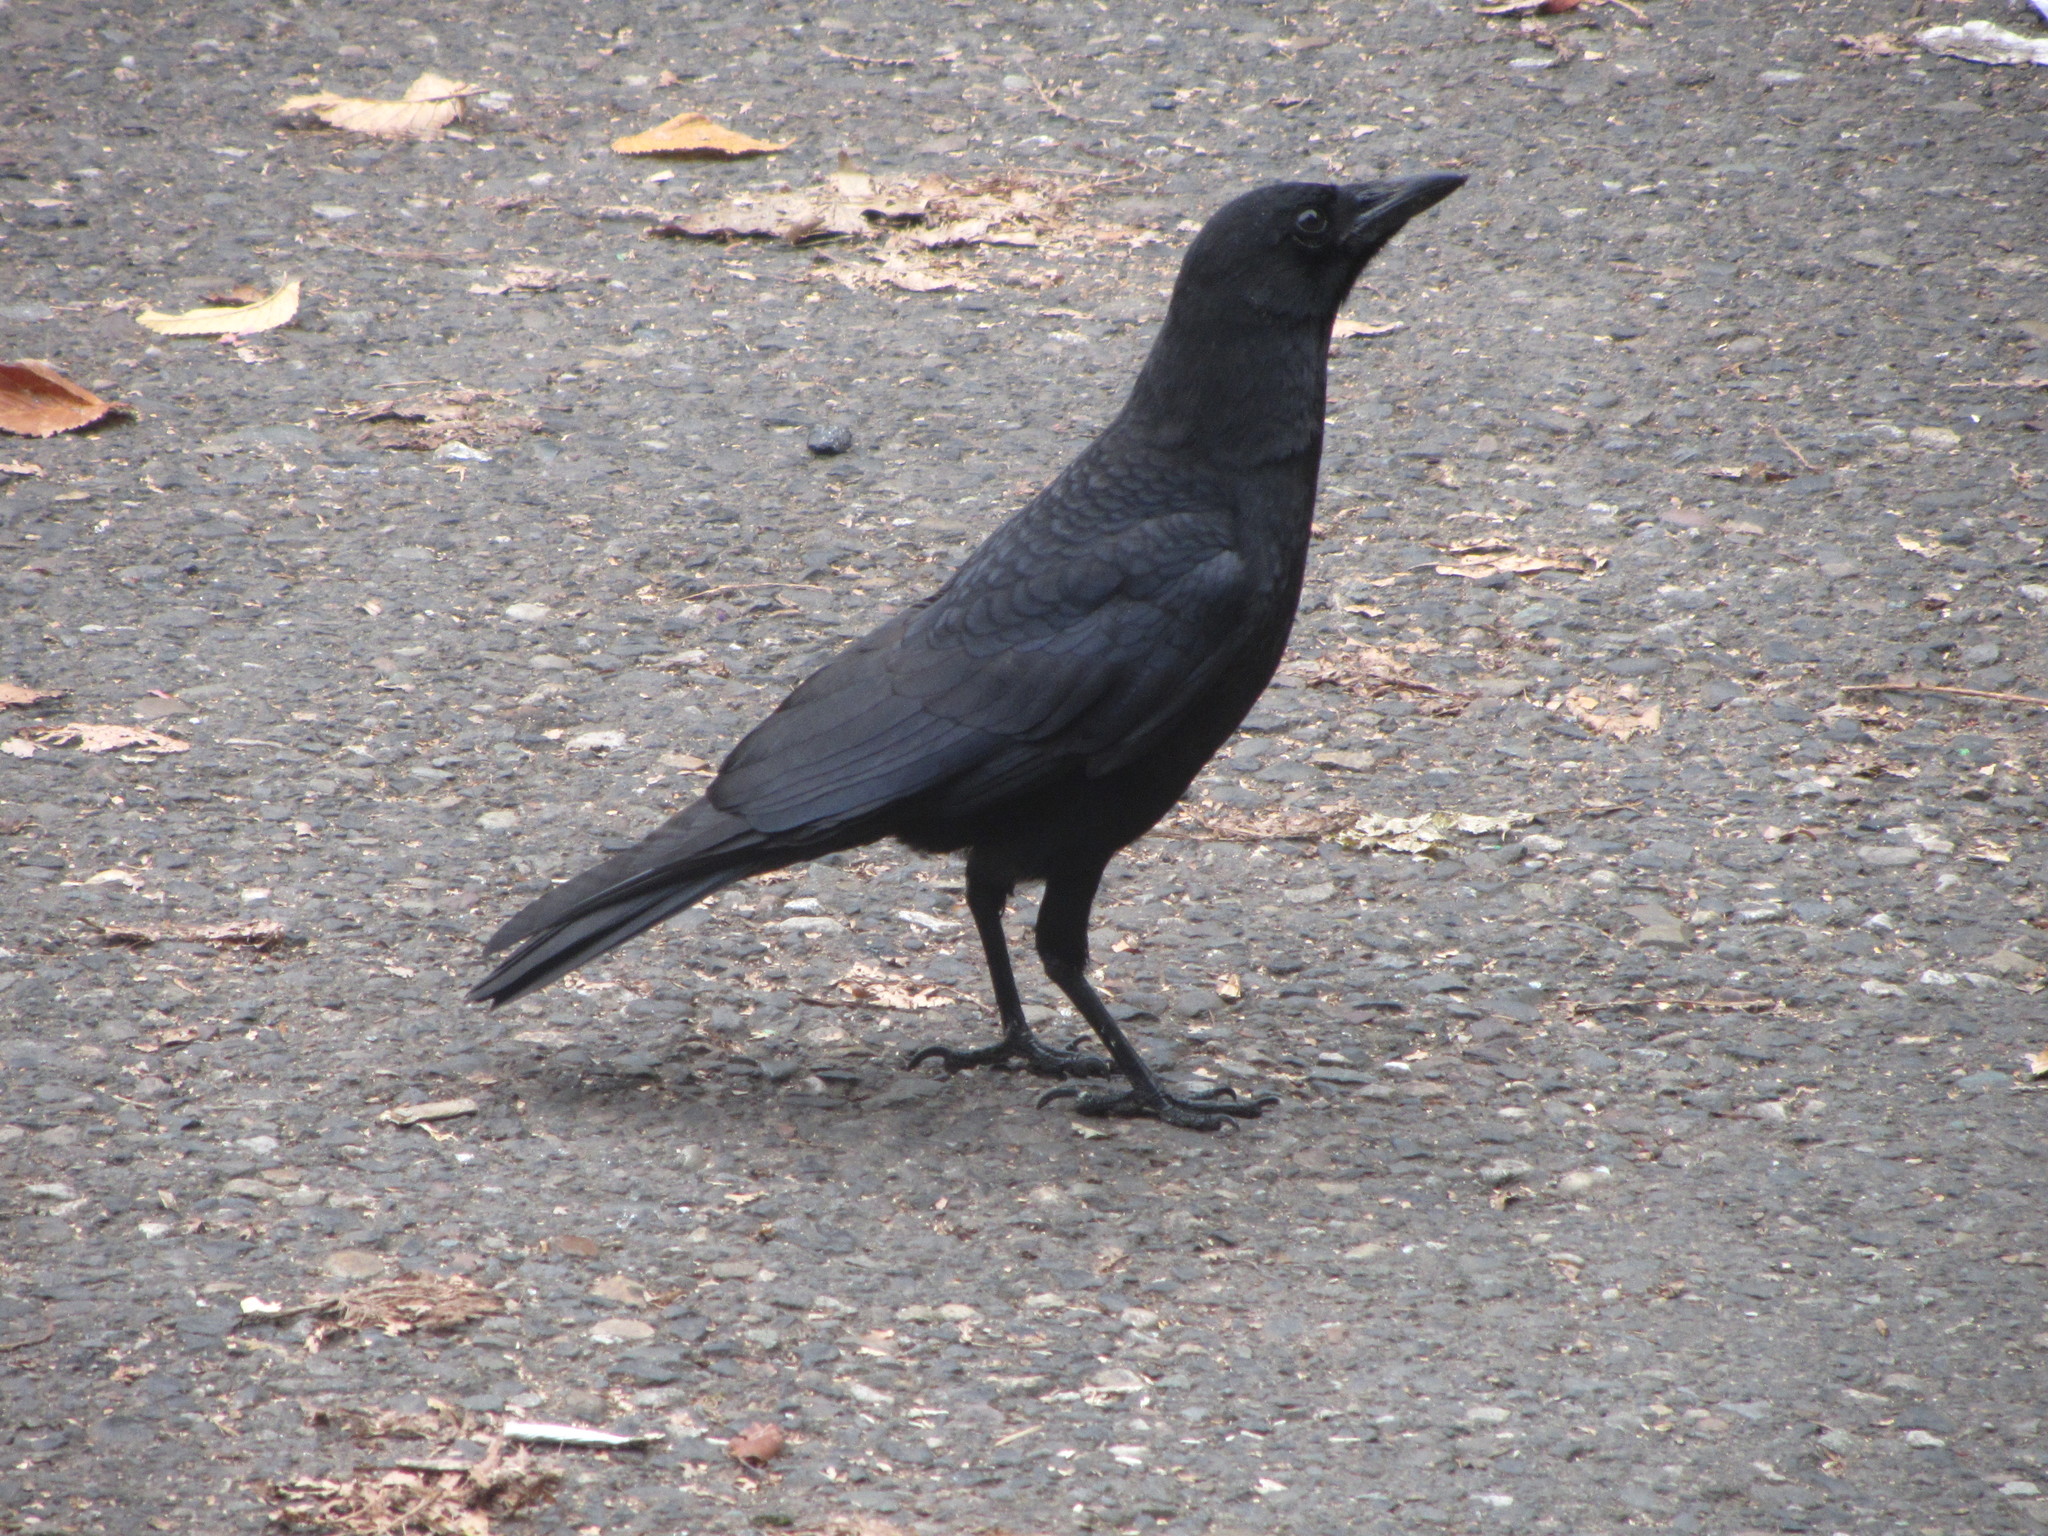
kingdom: Animalia
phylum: Chordata
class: Aves
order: Passeriformes
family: Corvidae
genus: Corvus
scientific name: Corvus brachyrhynchos
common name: American crow
